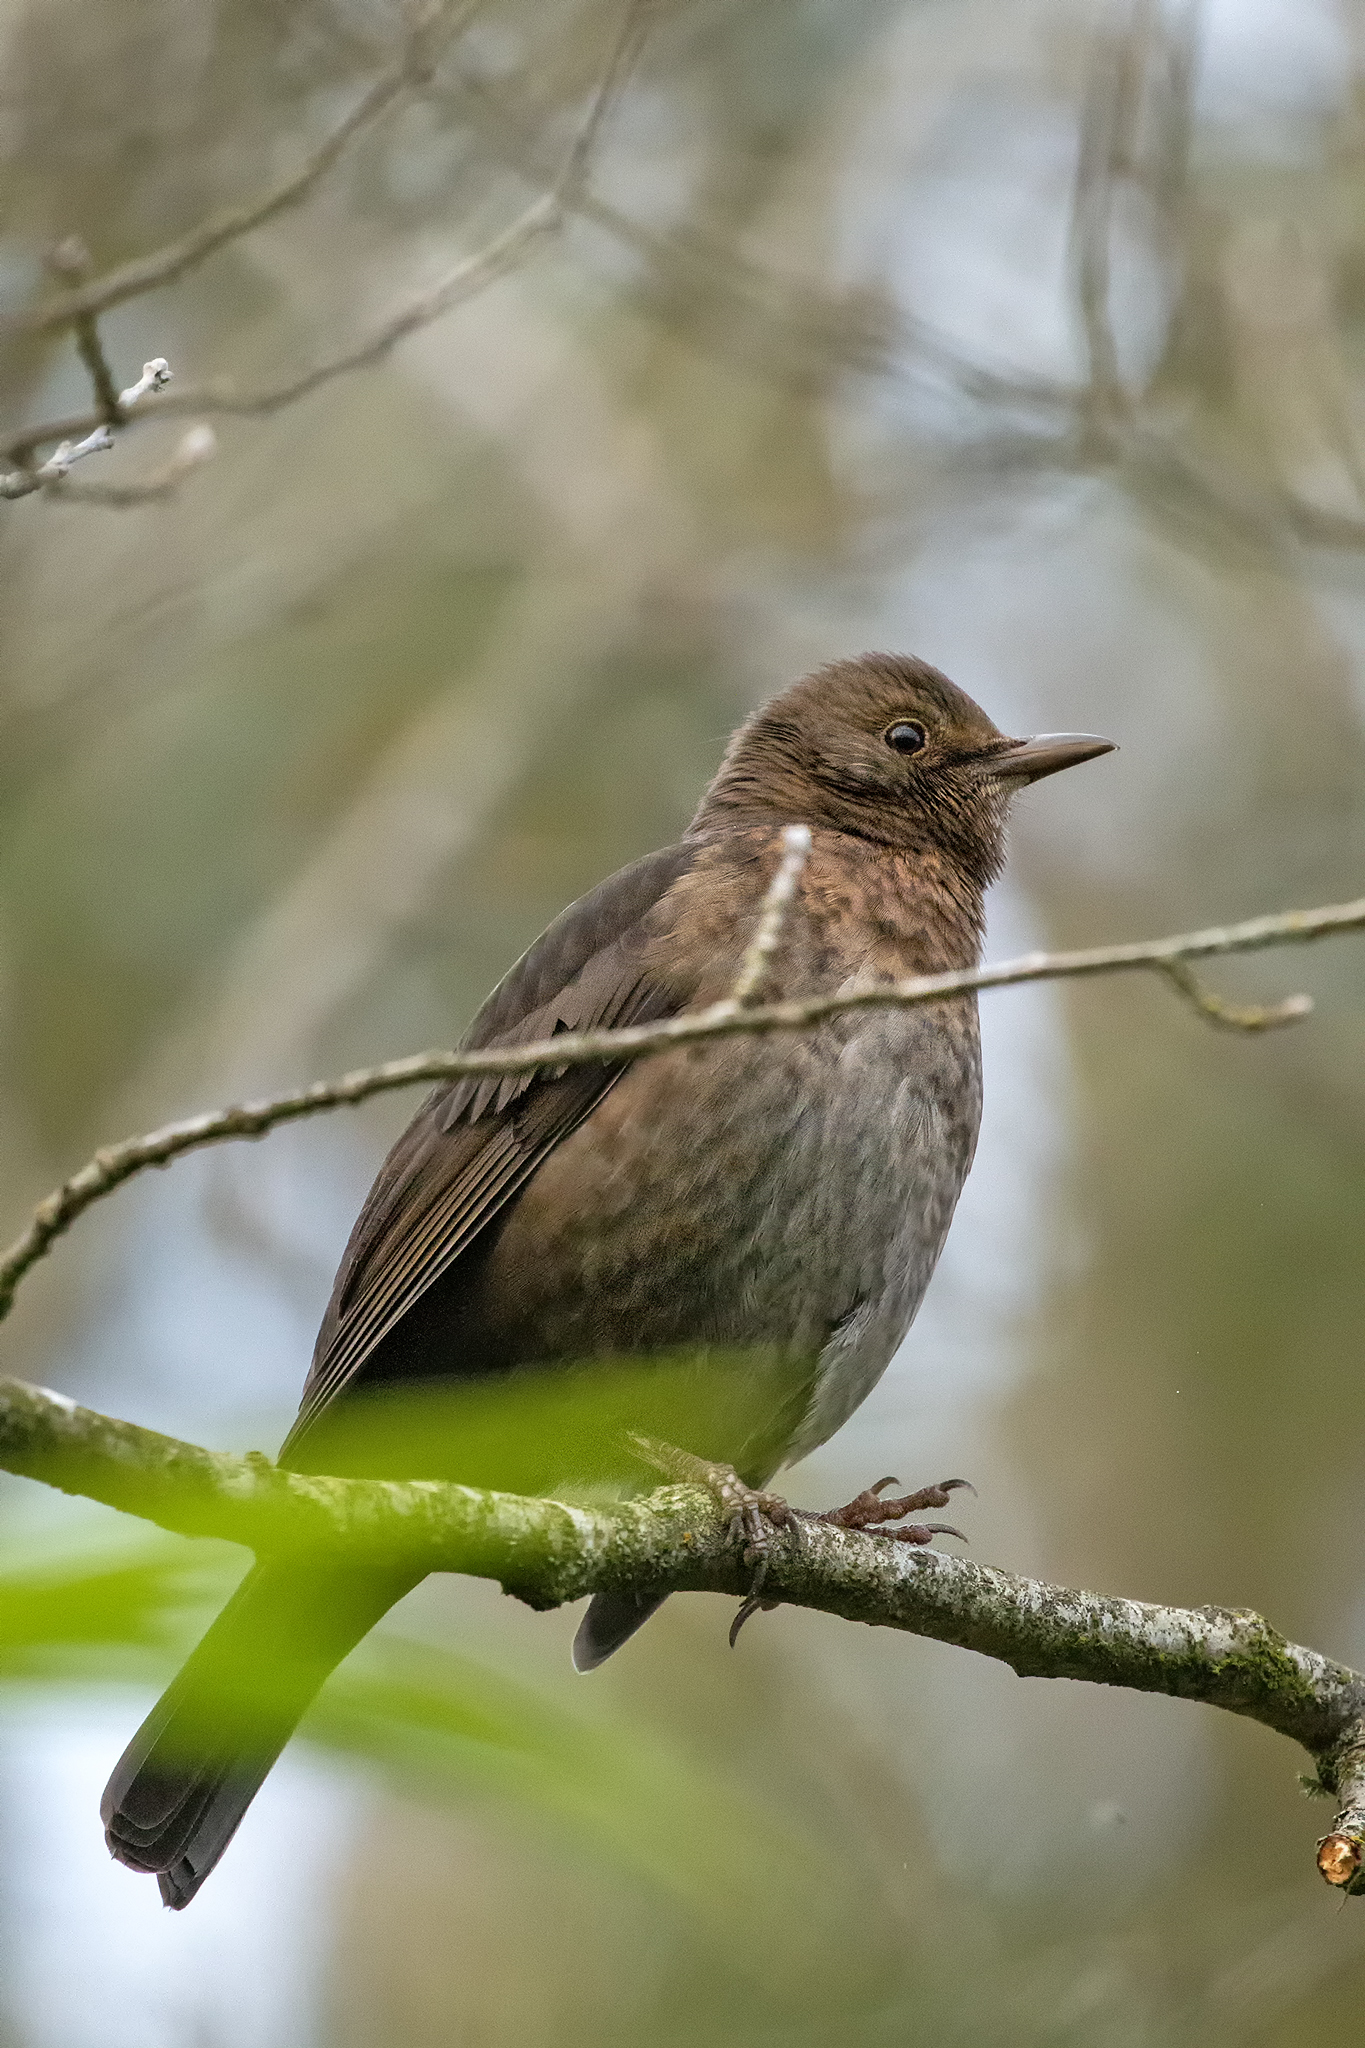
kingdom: Animalia
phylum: Chordata
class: Aves
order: Passeriformes
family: Turdidae
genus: Turdus
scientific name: Turdus merula
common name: Common blackbird
